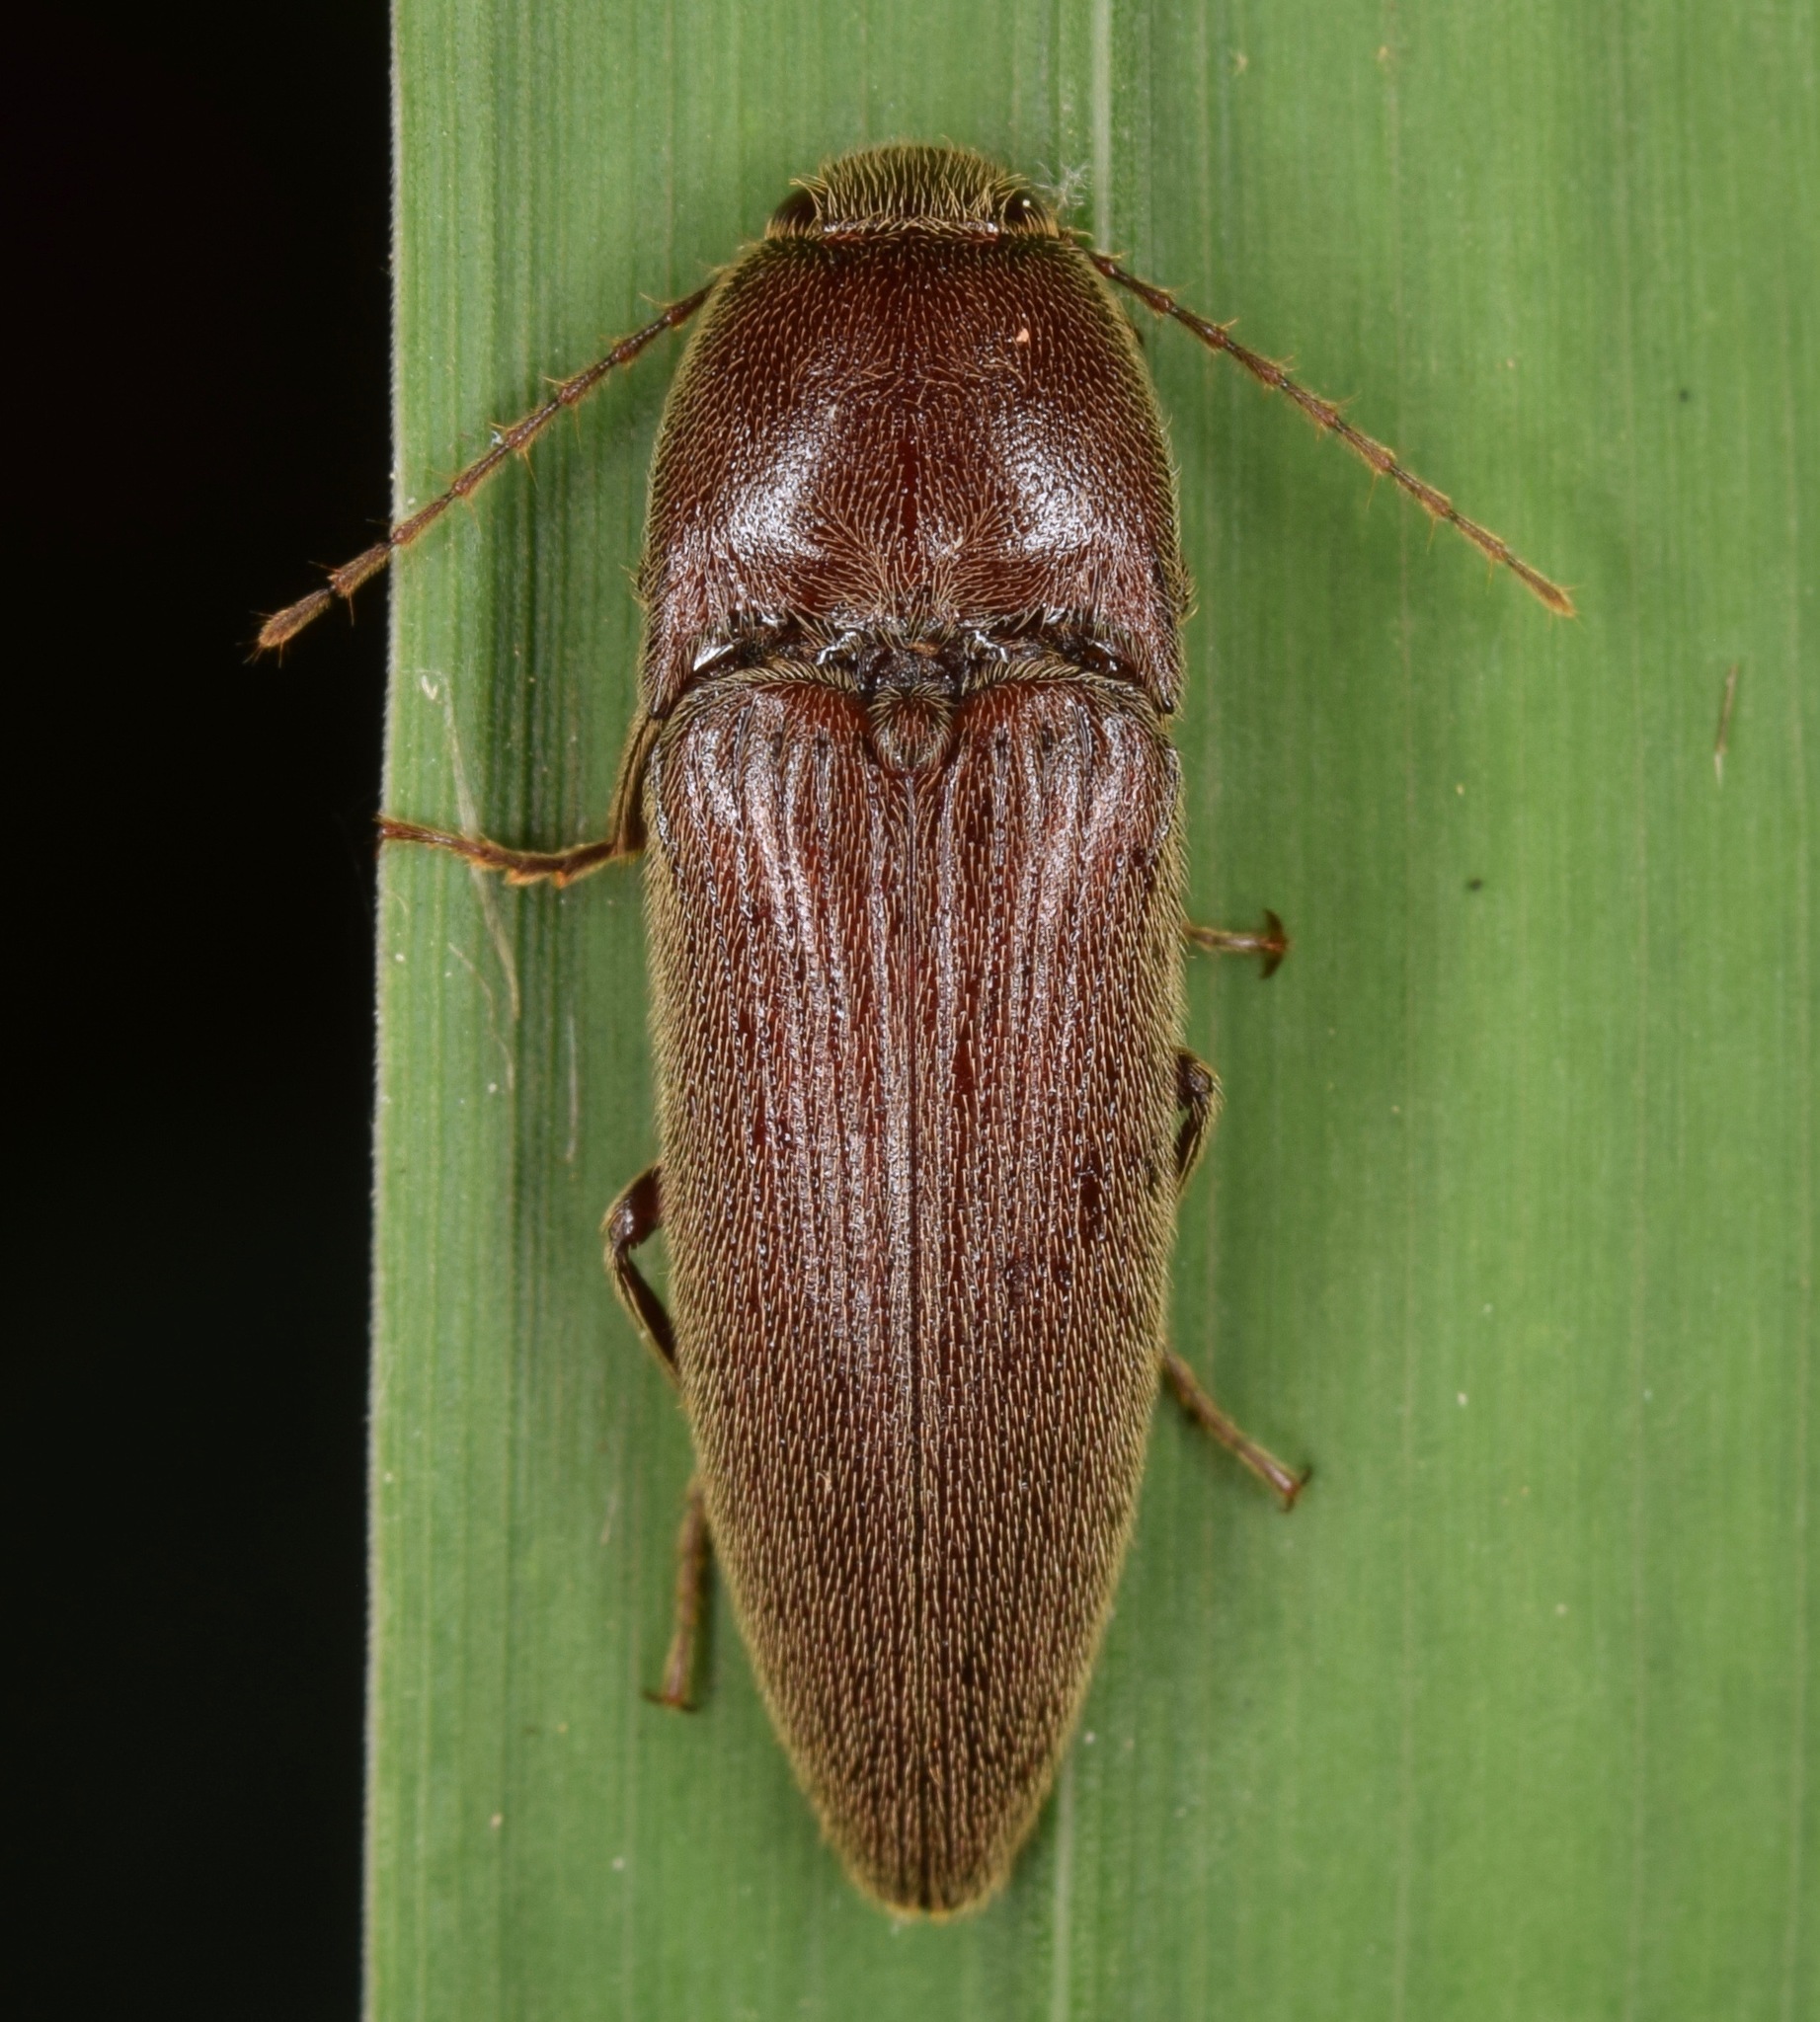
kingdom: Animalia
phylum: Arthropoda
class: Insecta
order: Coleoptera
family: Elateridae
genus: Melanotus
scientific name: Melanotus
